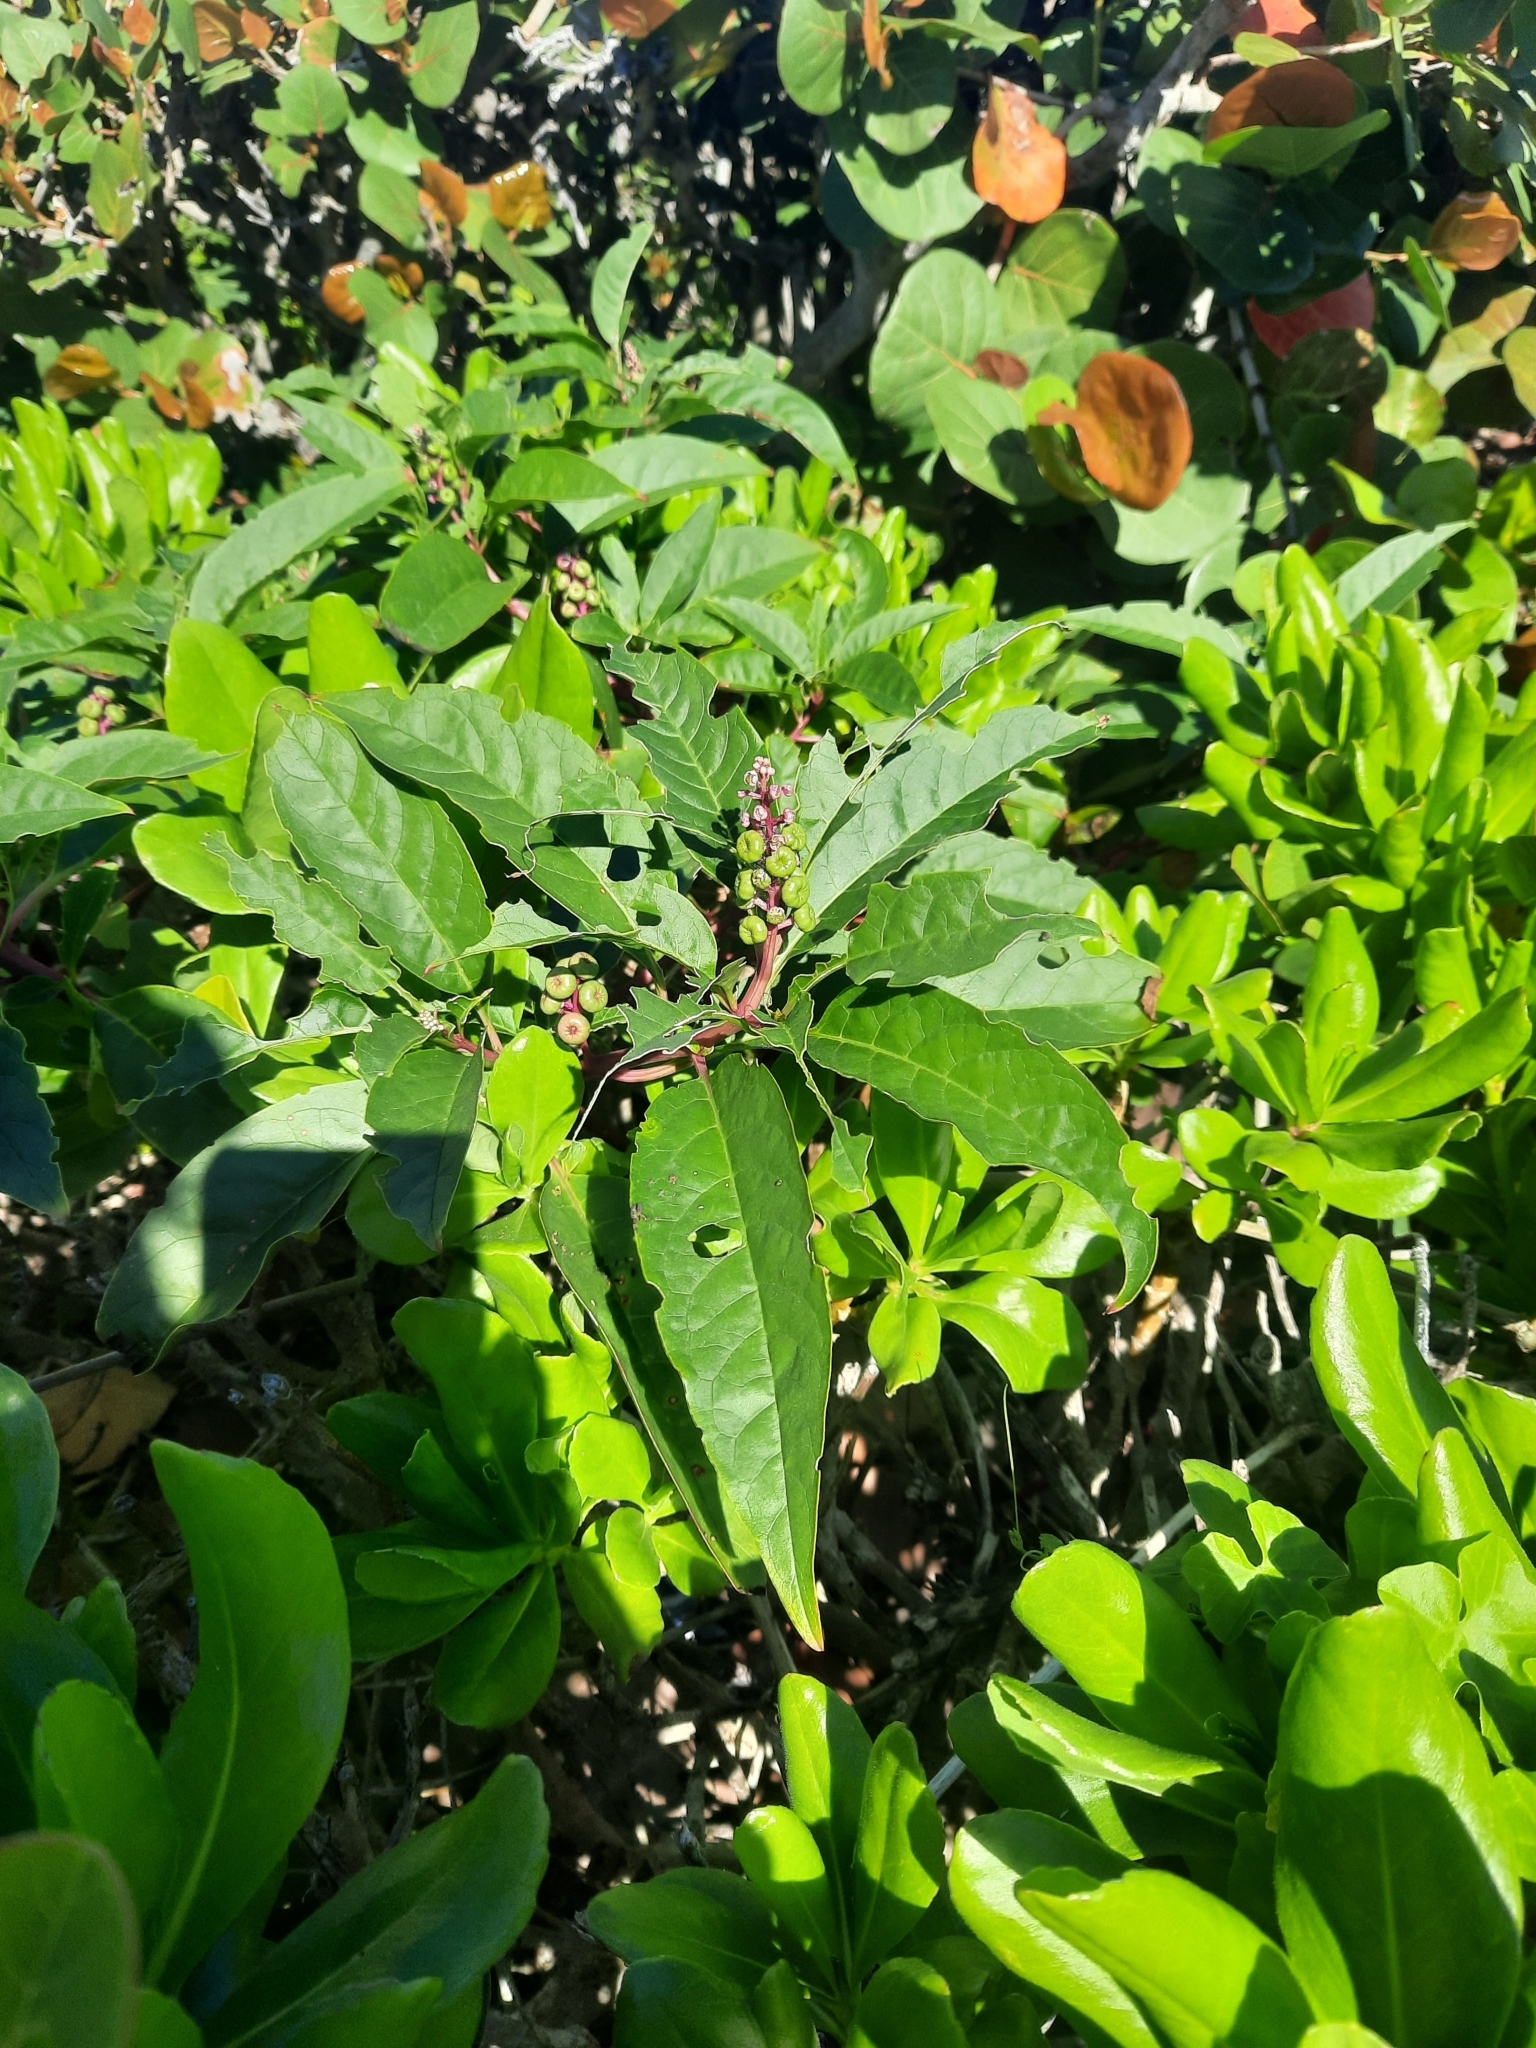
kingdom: Plantae
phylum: Tracheophyta
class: Magnoliopsida
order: Caryophyllales
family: Phytolaccaceae
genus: Phytolacca
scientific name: Phytolacca americana
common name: American pokeweed
